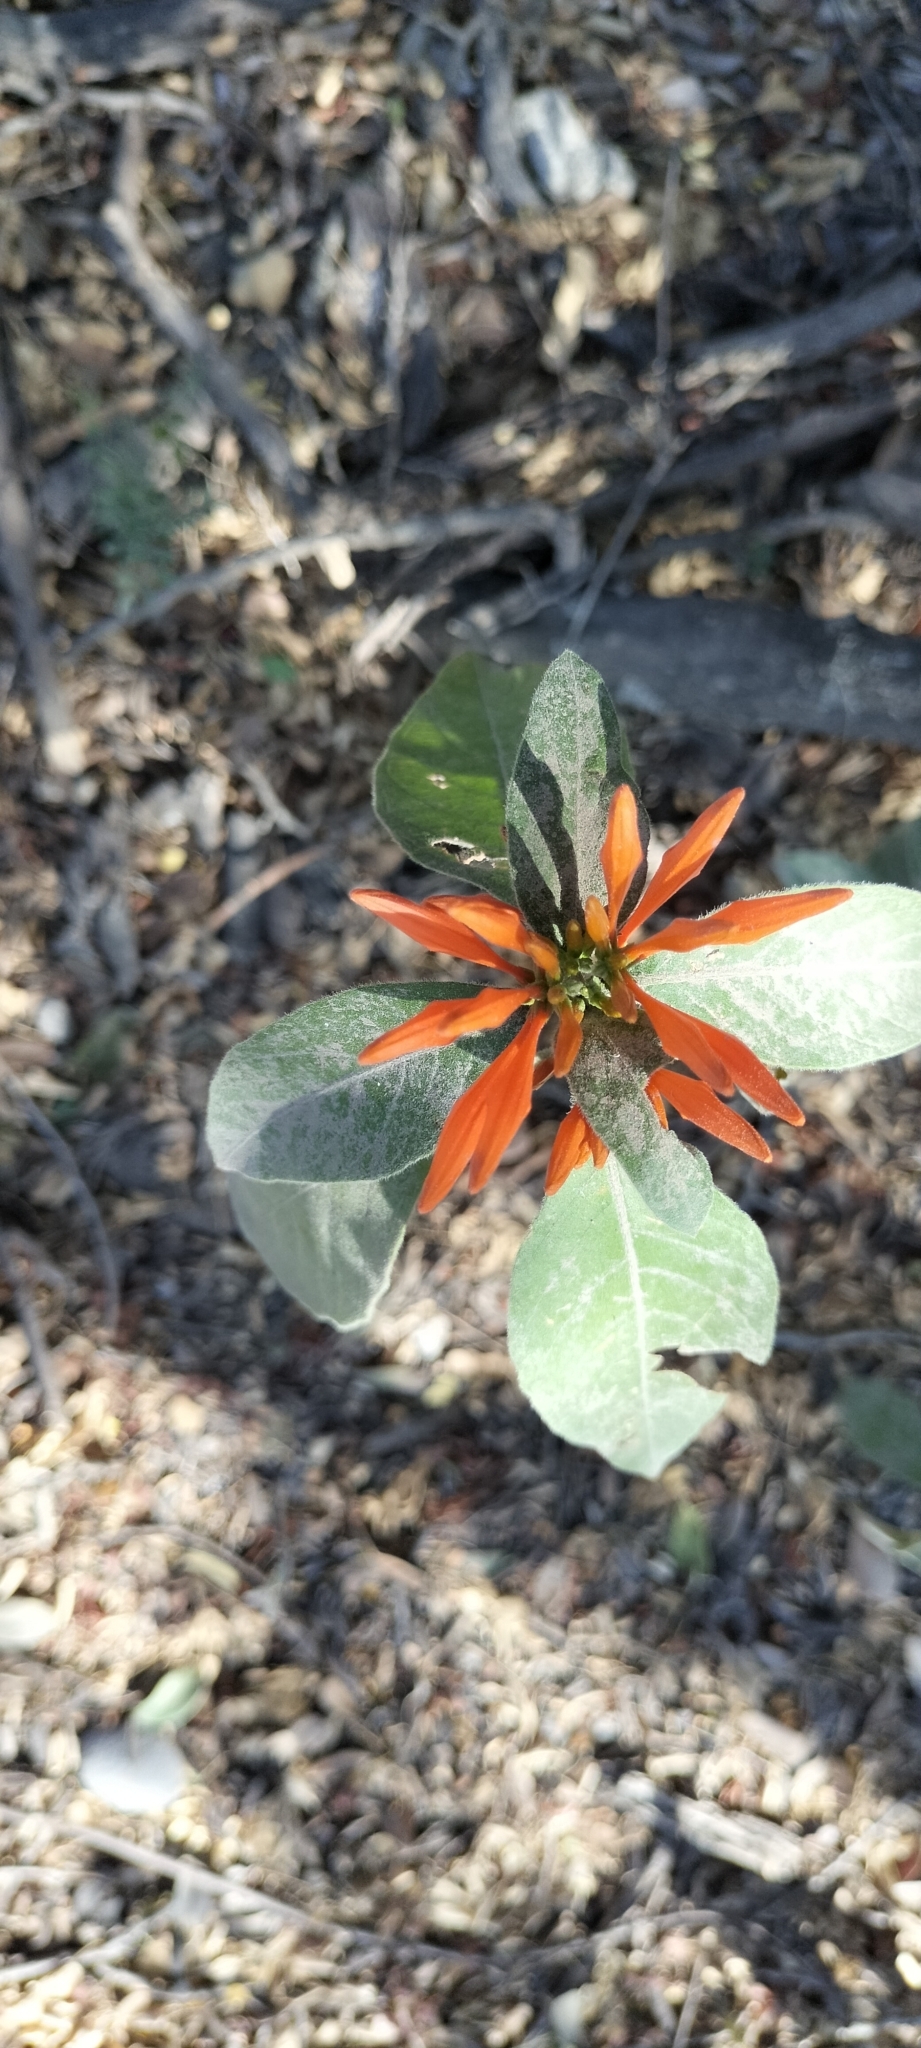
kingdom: Plantae
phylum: Tracheophyta
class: Magnoliopsida
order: Lamiales
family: Acanthaceae
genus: Justicia
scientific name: Justicia spicigera
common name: Mohintli
